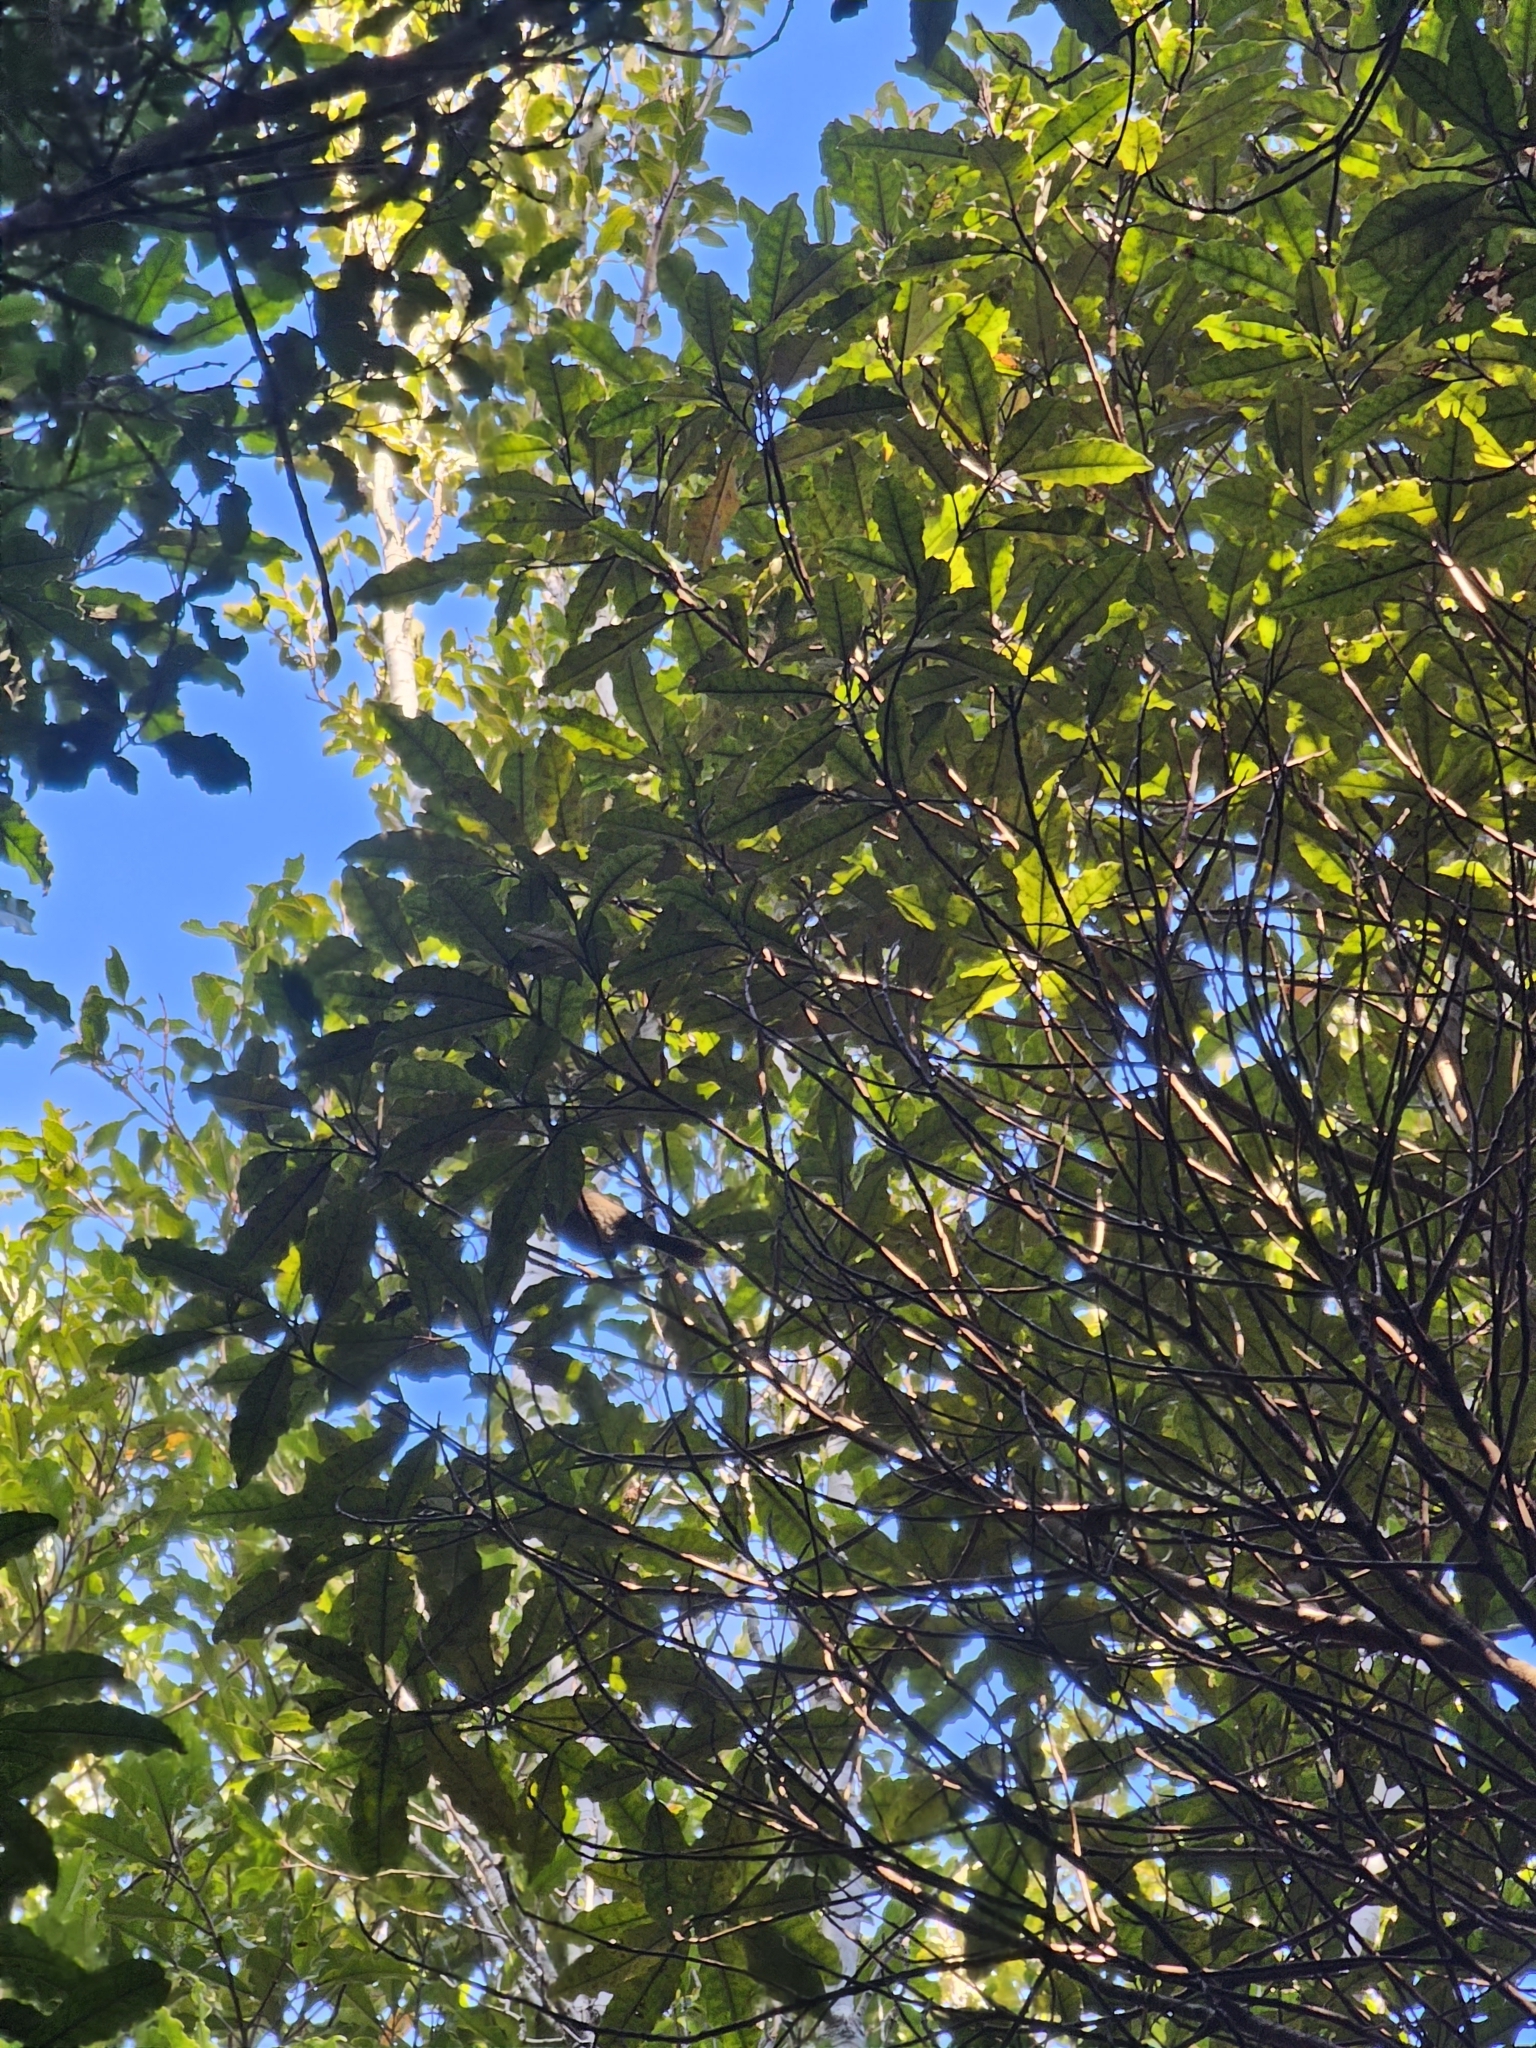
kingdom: Animalia
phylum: Chordata
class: Aves
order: Passeriformes
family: Acanthizidae
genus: Finschia
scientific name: Finschia novaeseelandiae
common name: Pipipi
